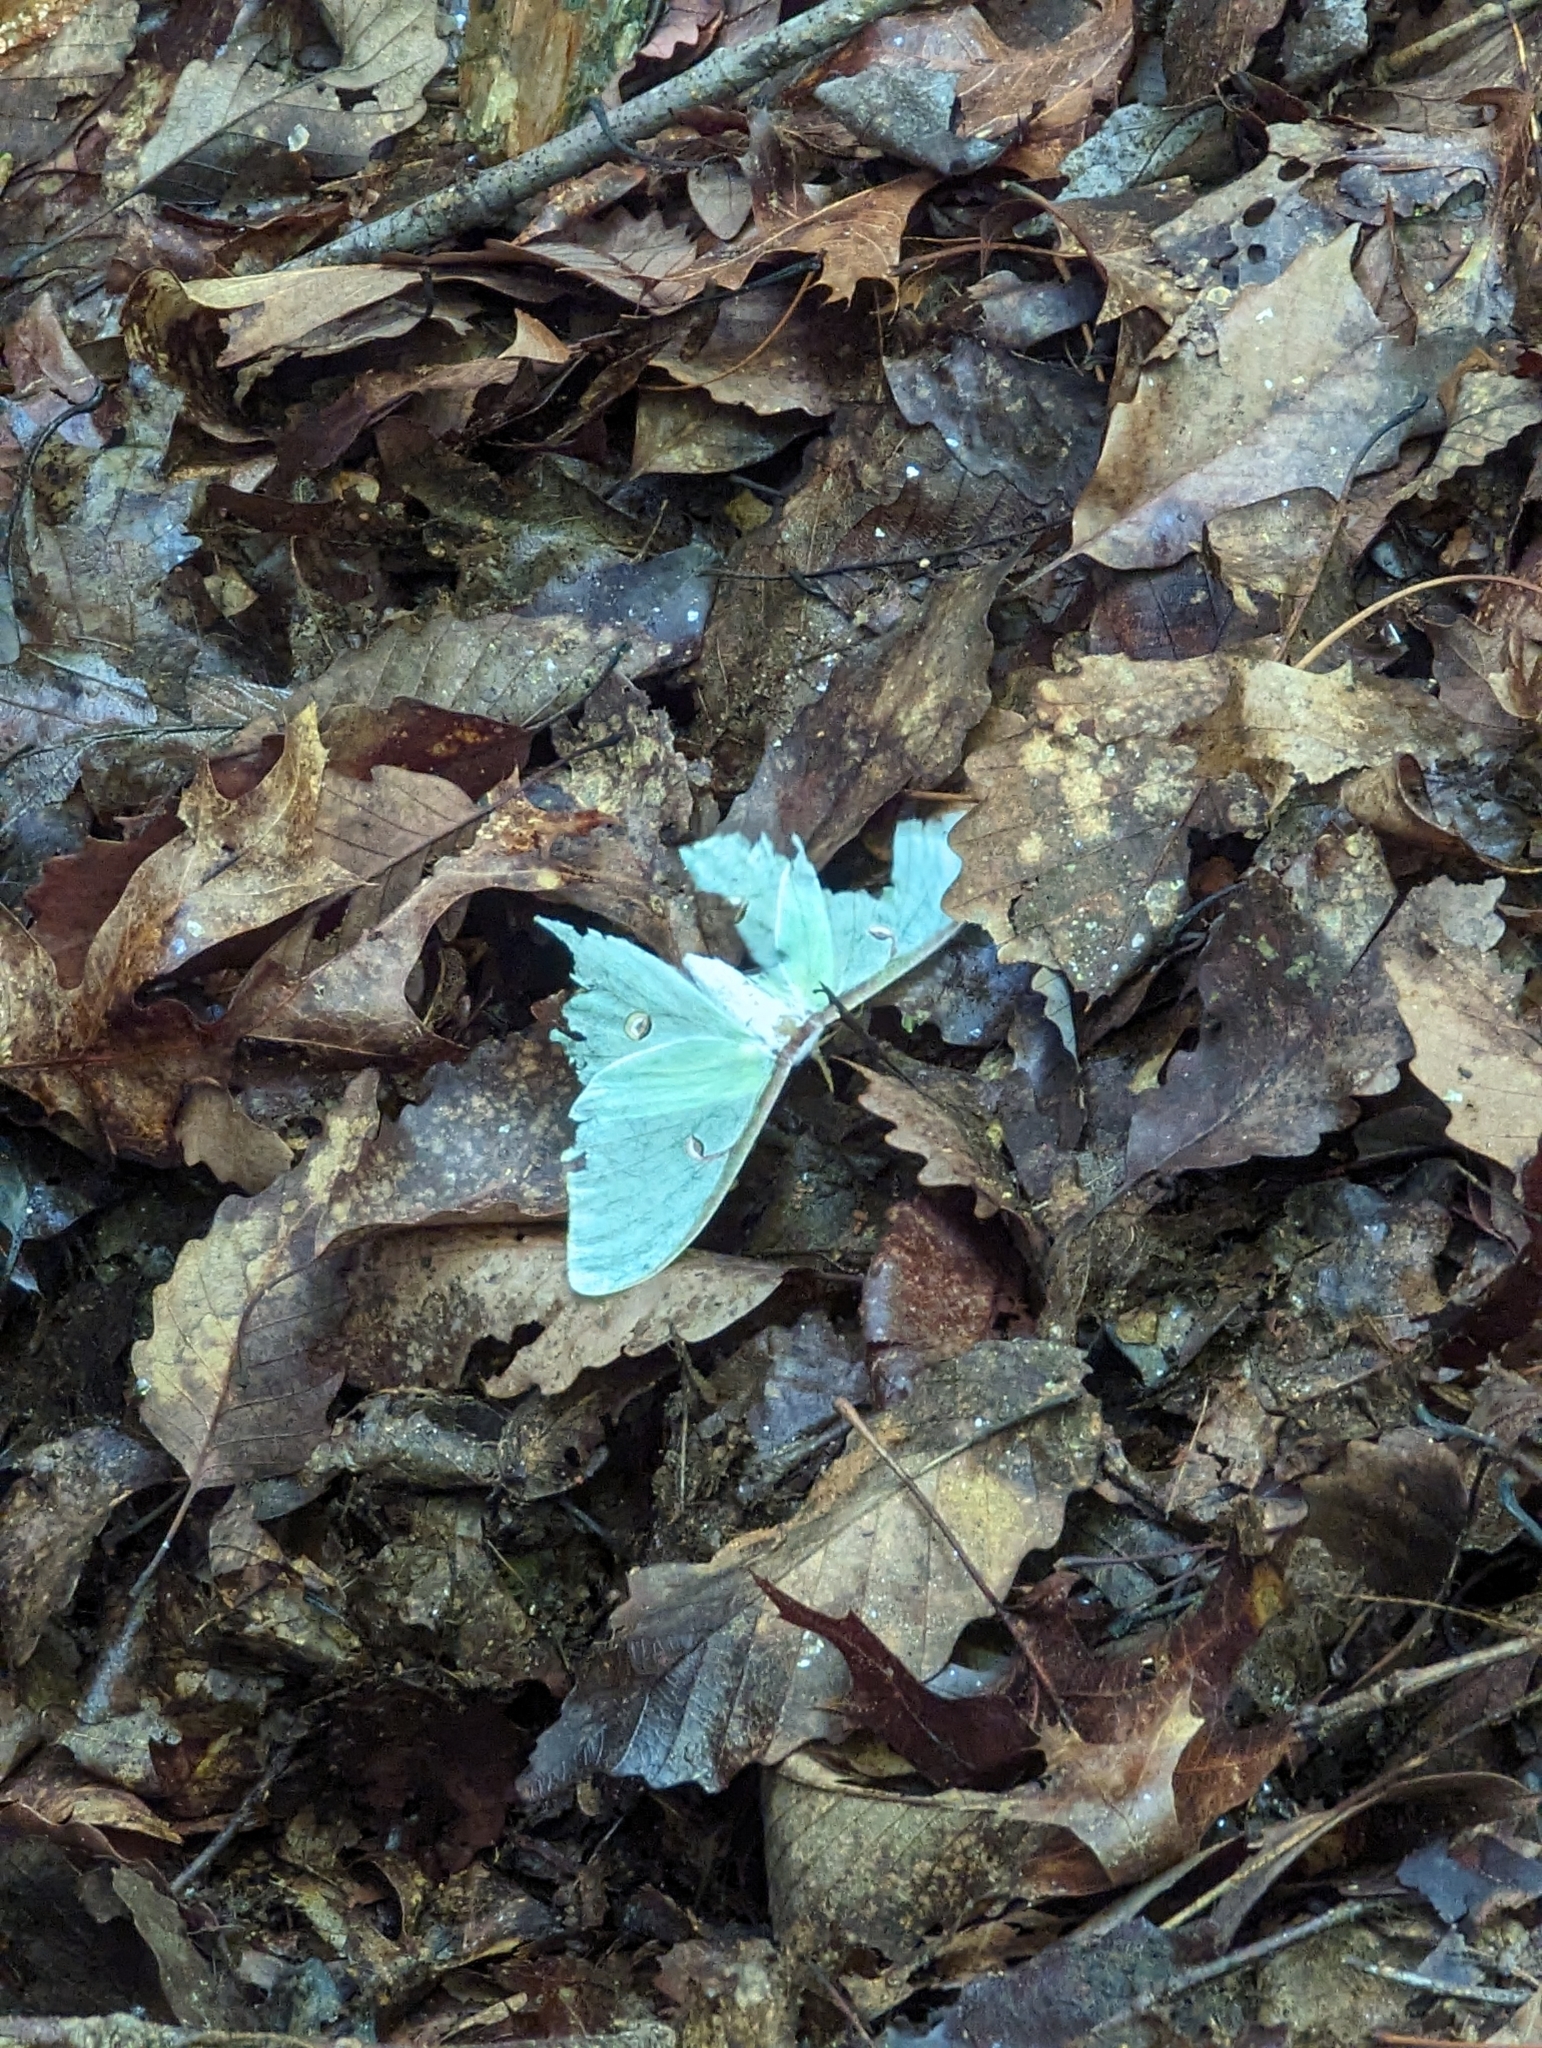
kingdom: Animalia
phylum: Arthropoda
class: Insecta
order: Lepidoptera
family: Saturniidae
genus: Actias
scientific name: Actias luna
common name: Luna moth
